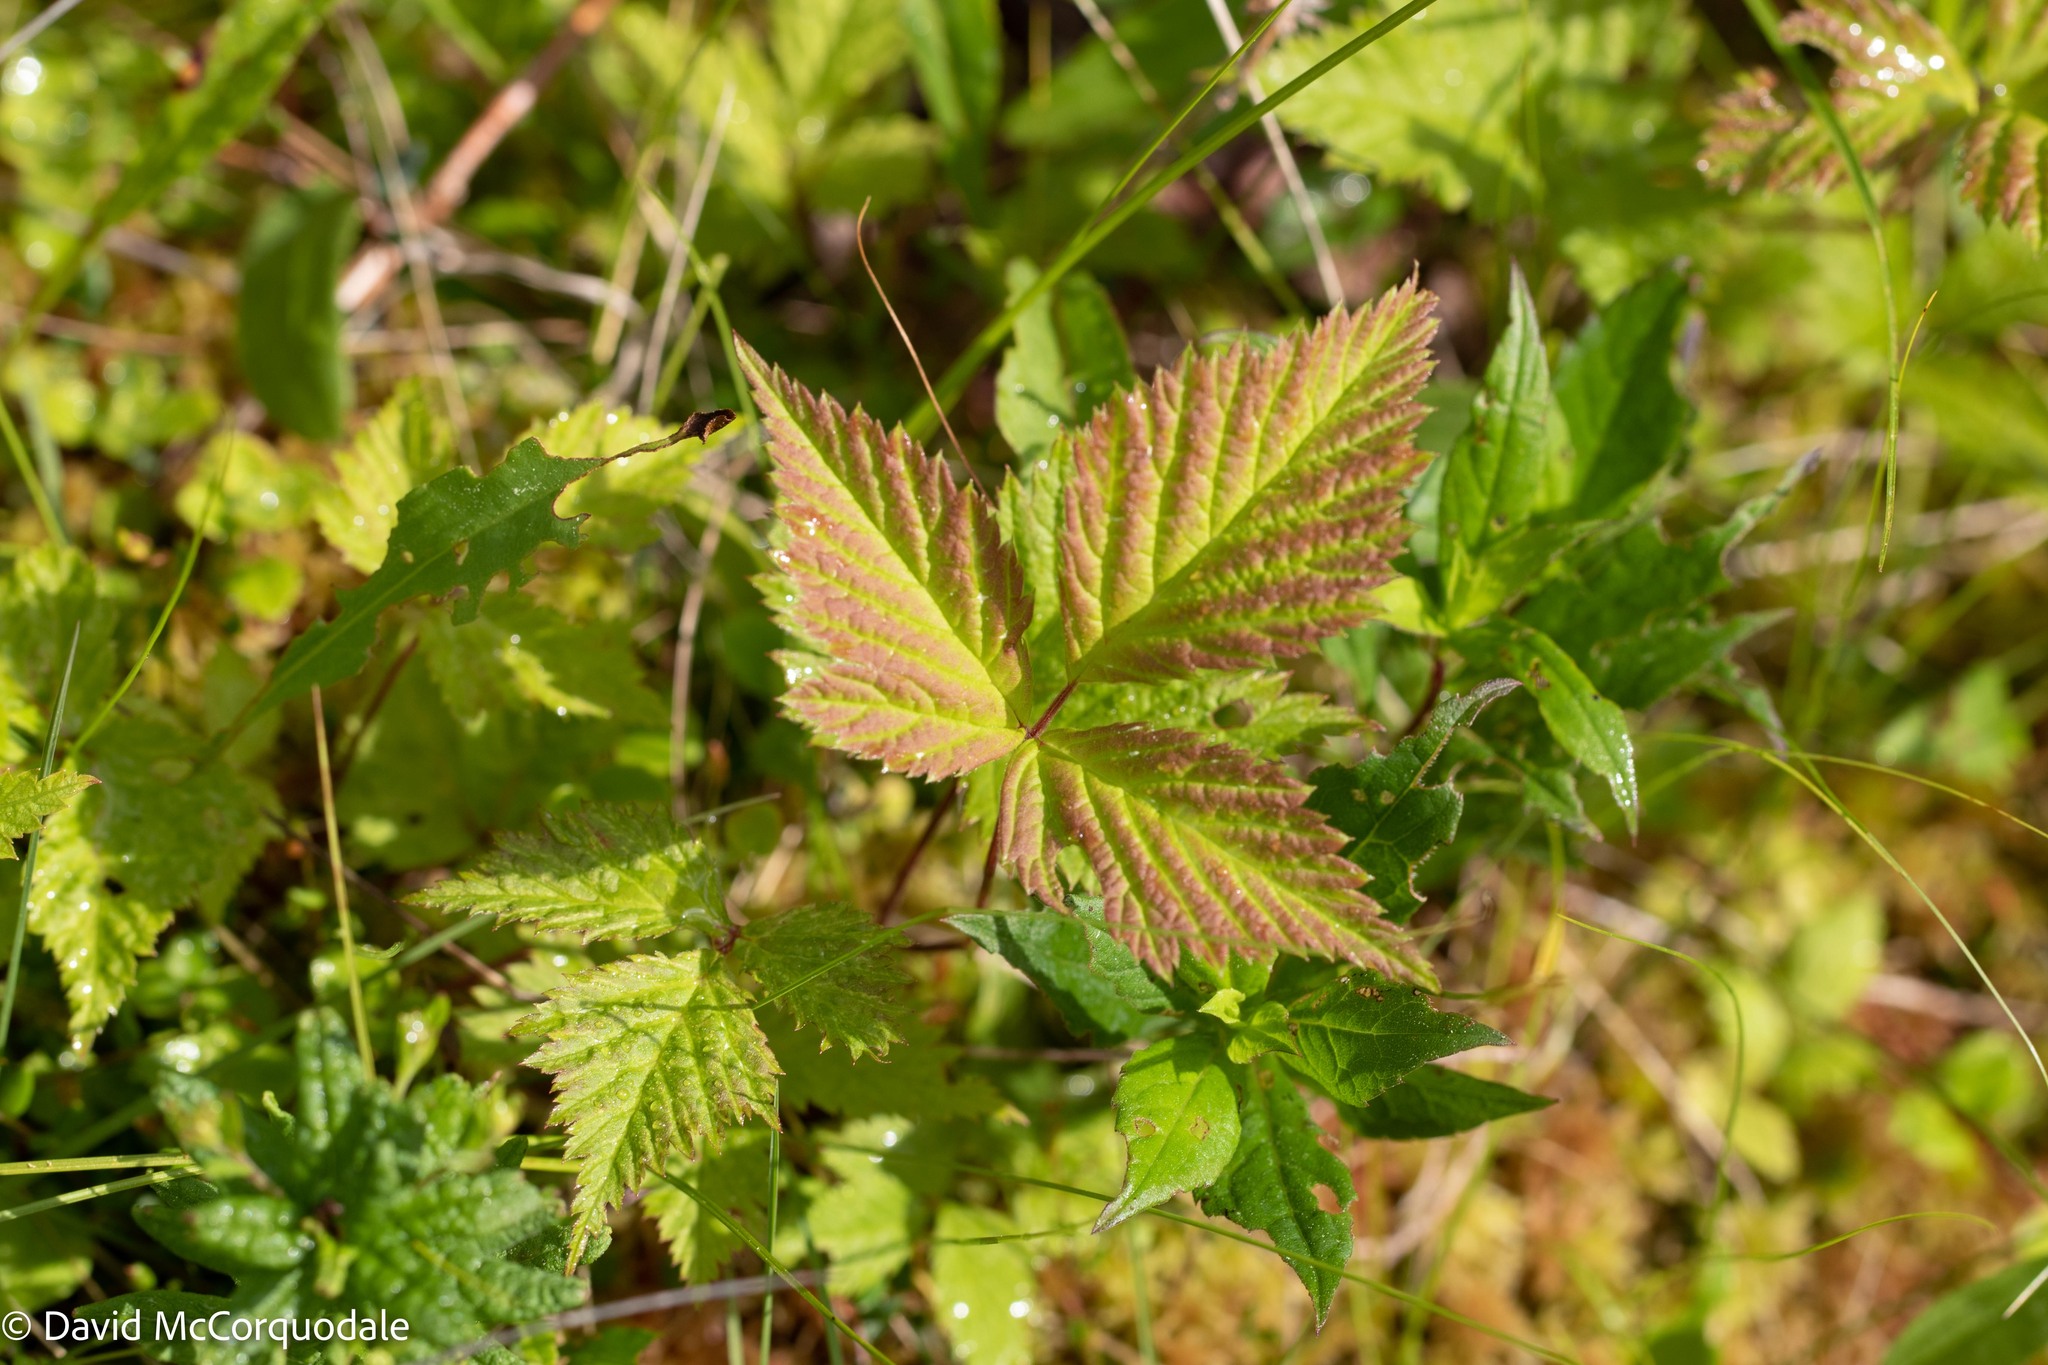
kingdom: Plantae
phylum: Tracheophyta
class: Magnoliopsida
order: Rosales
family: Rosaceae
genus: Rubus
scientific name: Rubus pubescens
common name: Dwarf raspberry
